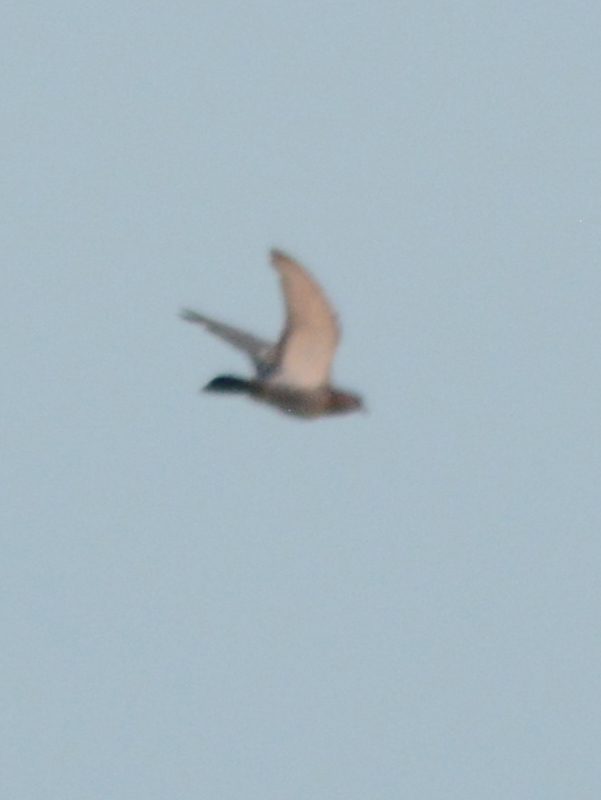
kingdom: Animalia
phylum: Chordata
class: Aves
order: Columbiformes
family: Columbidae
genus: Columba
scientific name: Columba livia
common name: Rock pigeon
